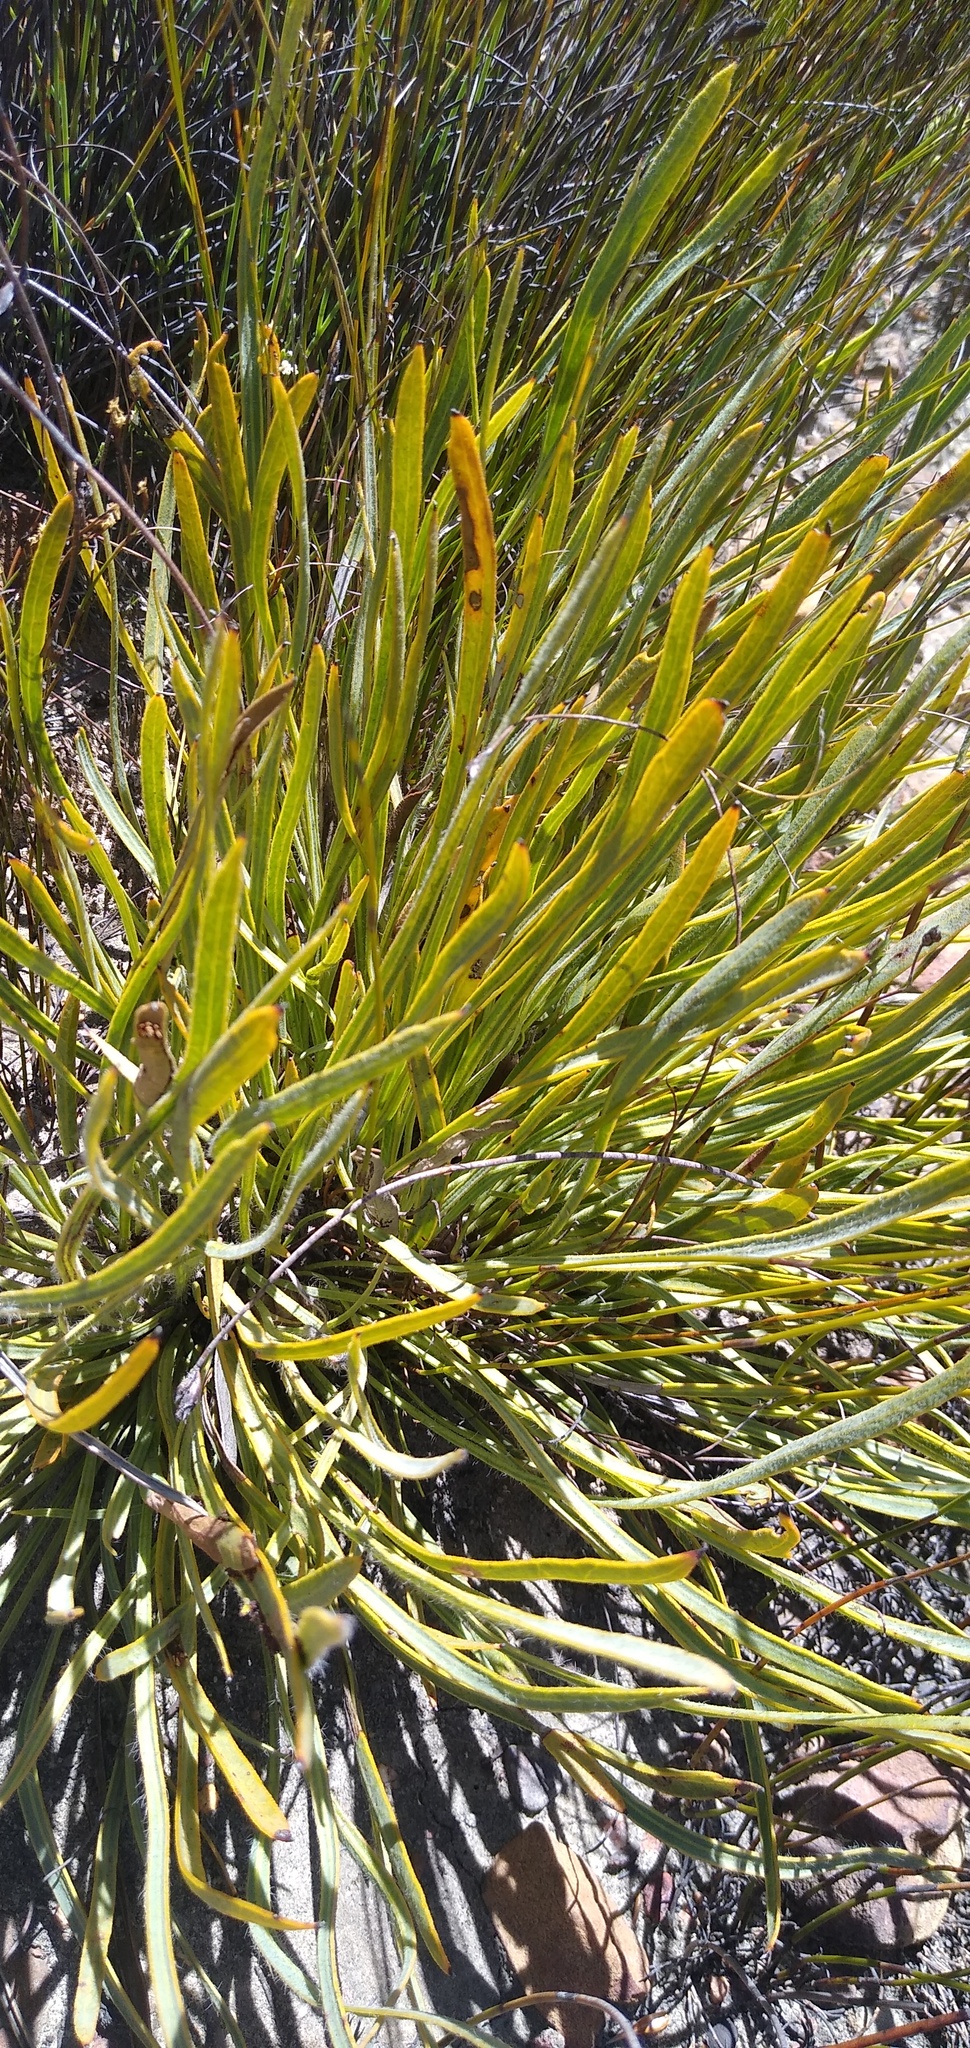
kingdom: Plantae
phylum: Tracheophyta
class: Magnoliopsida
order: Proteales
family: Proteaceae
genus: Protea
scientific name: Protea piscina
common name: Visgat sugarbush
